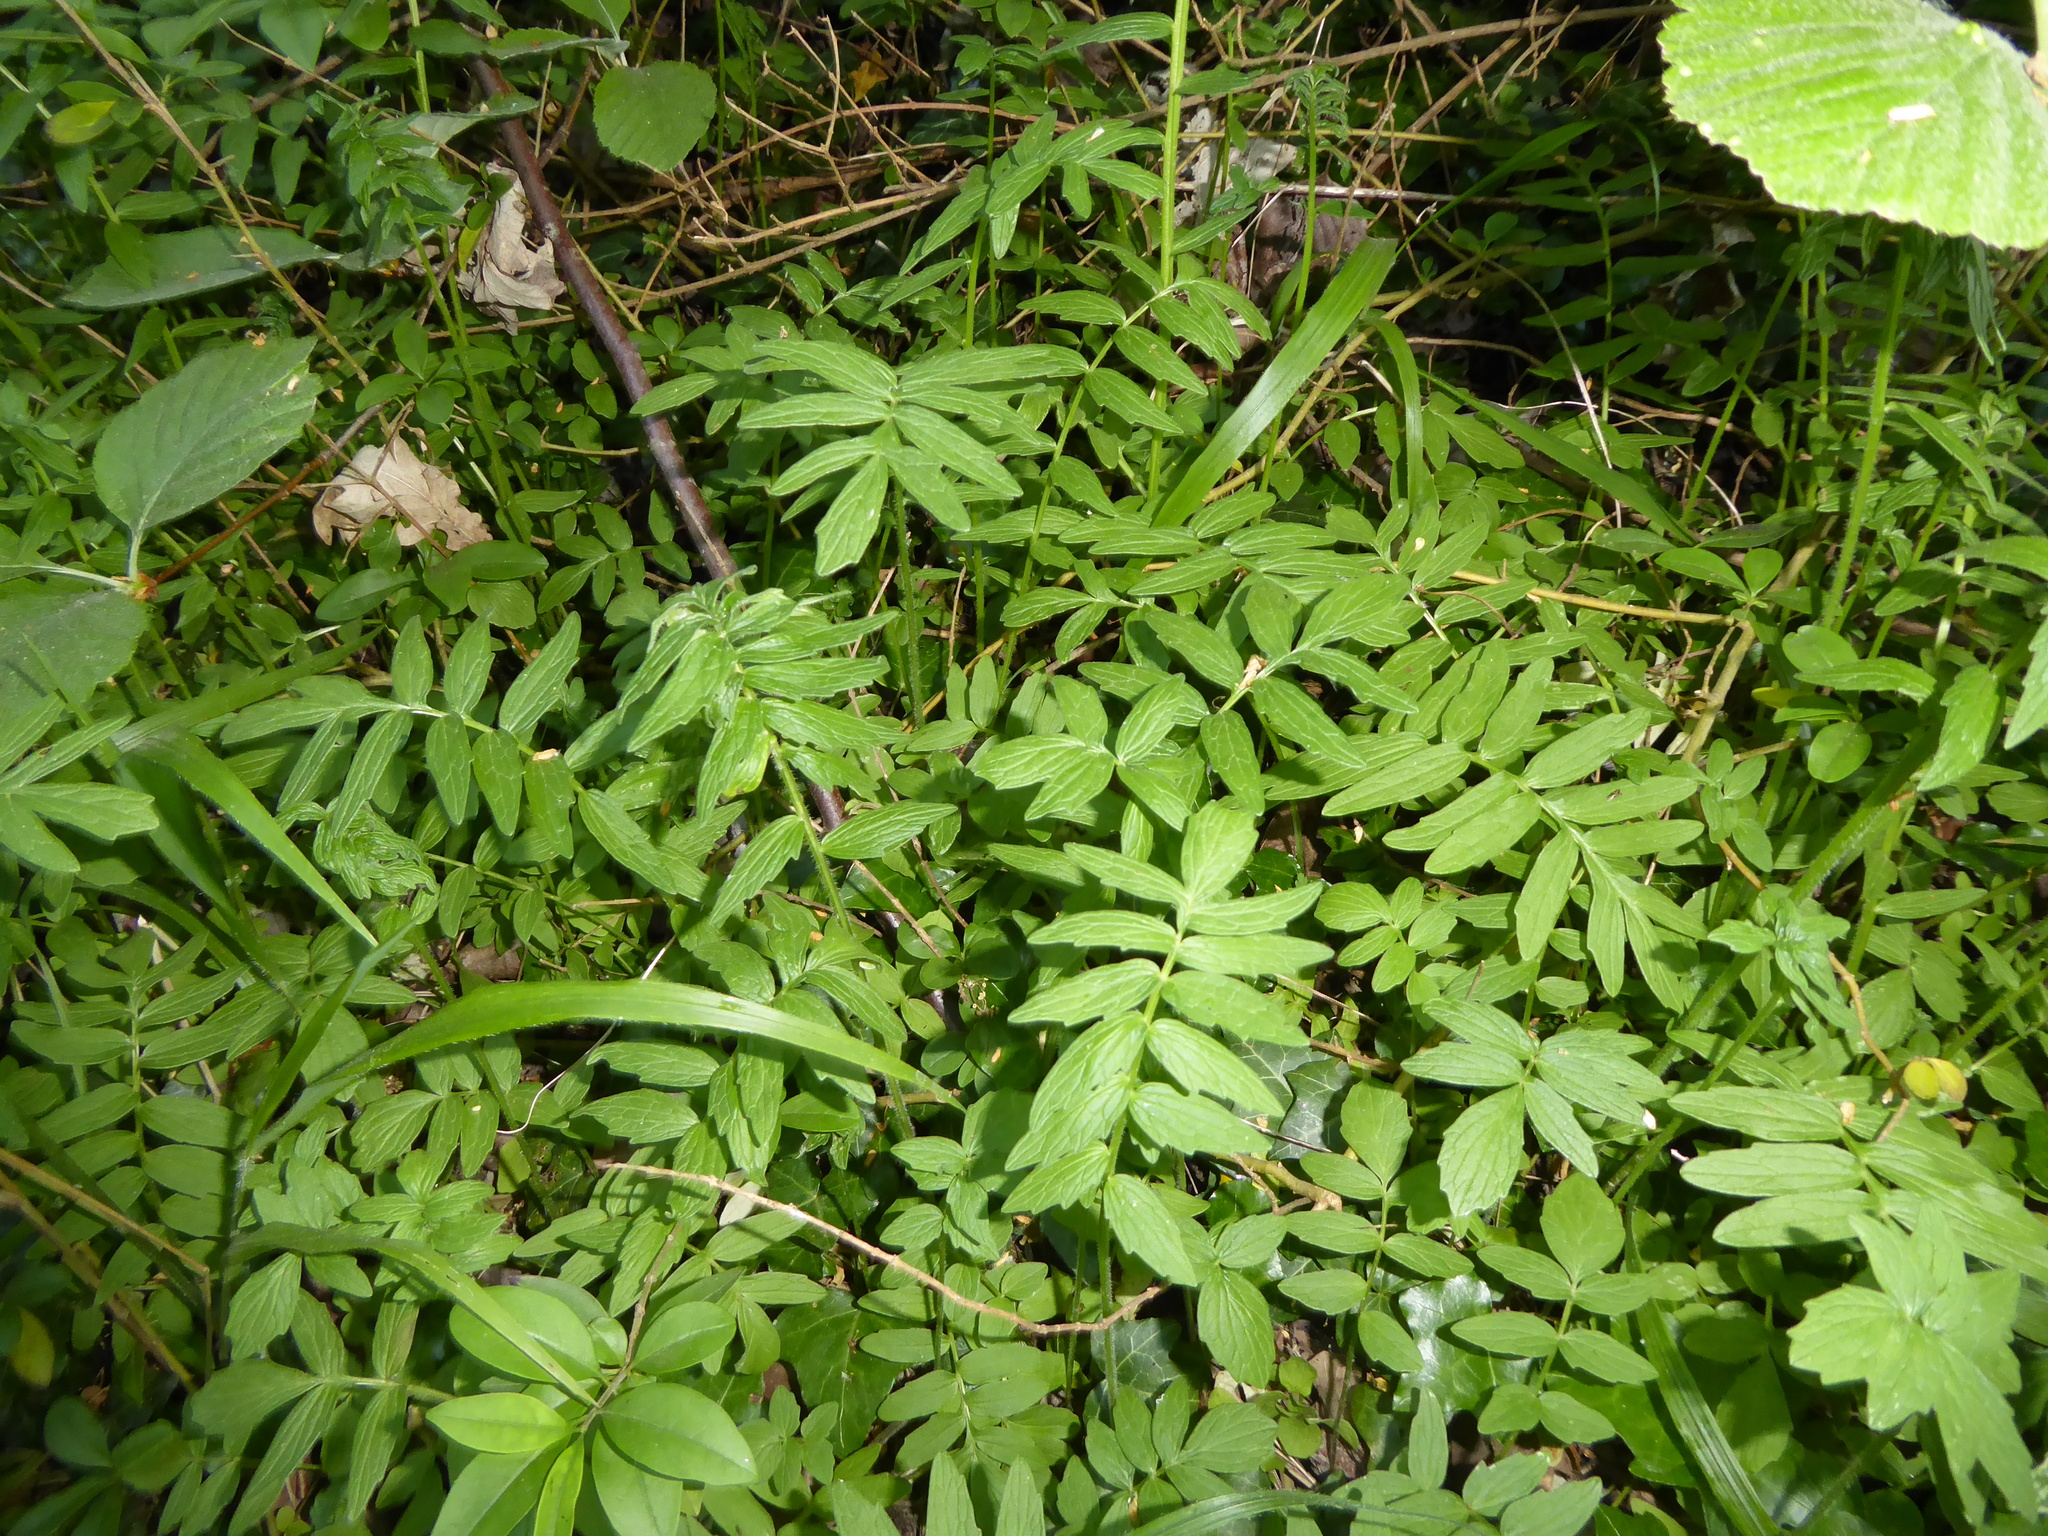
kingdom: Plantae
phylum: Tracheophyta
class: Magnoliopsida
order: Dipsacales
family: Caprifoliaceae
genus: Valeriana
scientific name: Valeriana officinalis
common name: Common valerian
